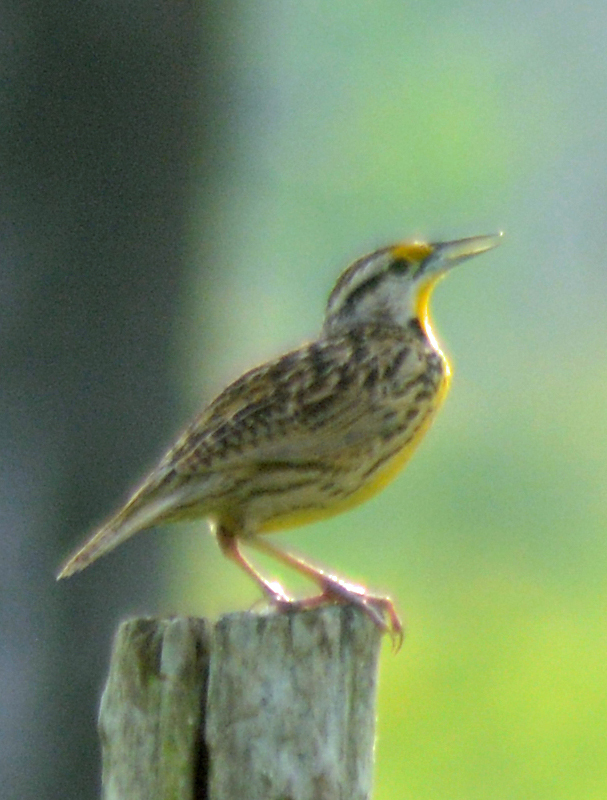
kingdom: Animalia
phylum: Chordata
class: Aves
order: Passeriformes
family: Icteridae
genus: Sturnella
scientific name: Sturnella magna
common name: Eastern meadowlark
